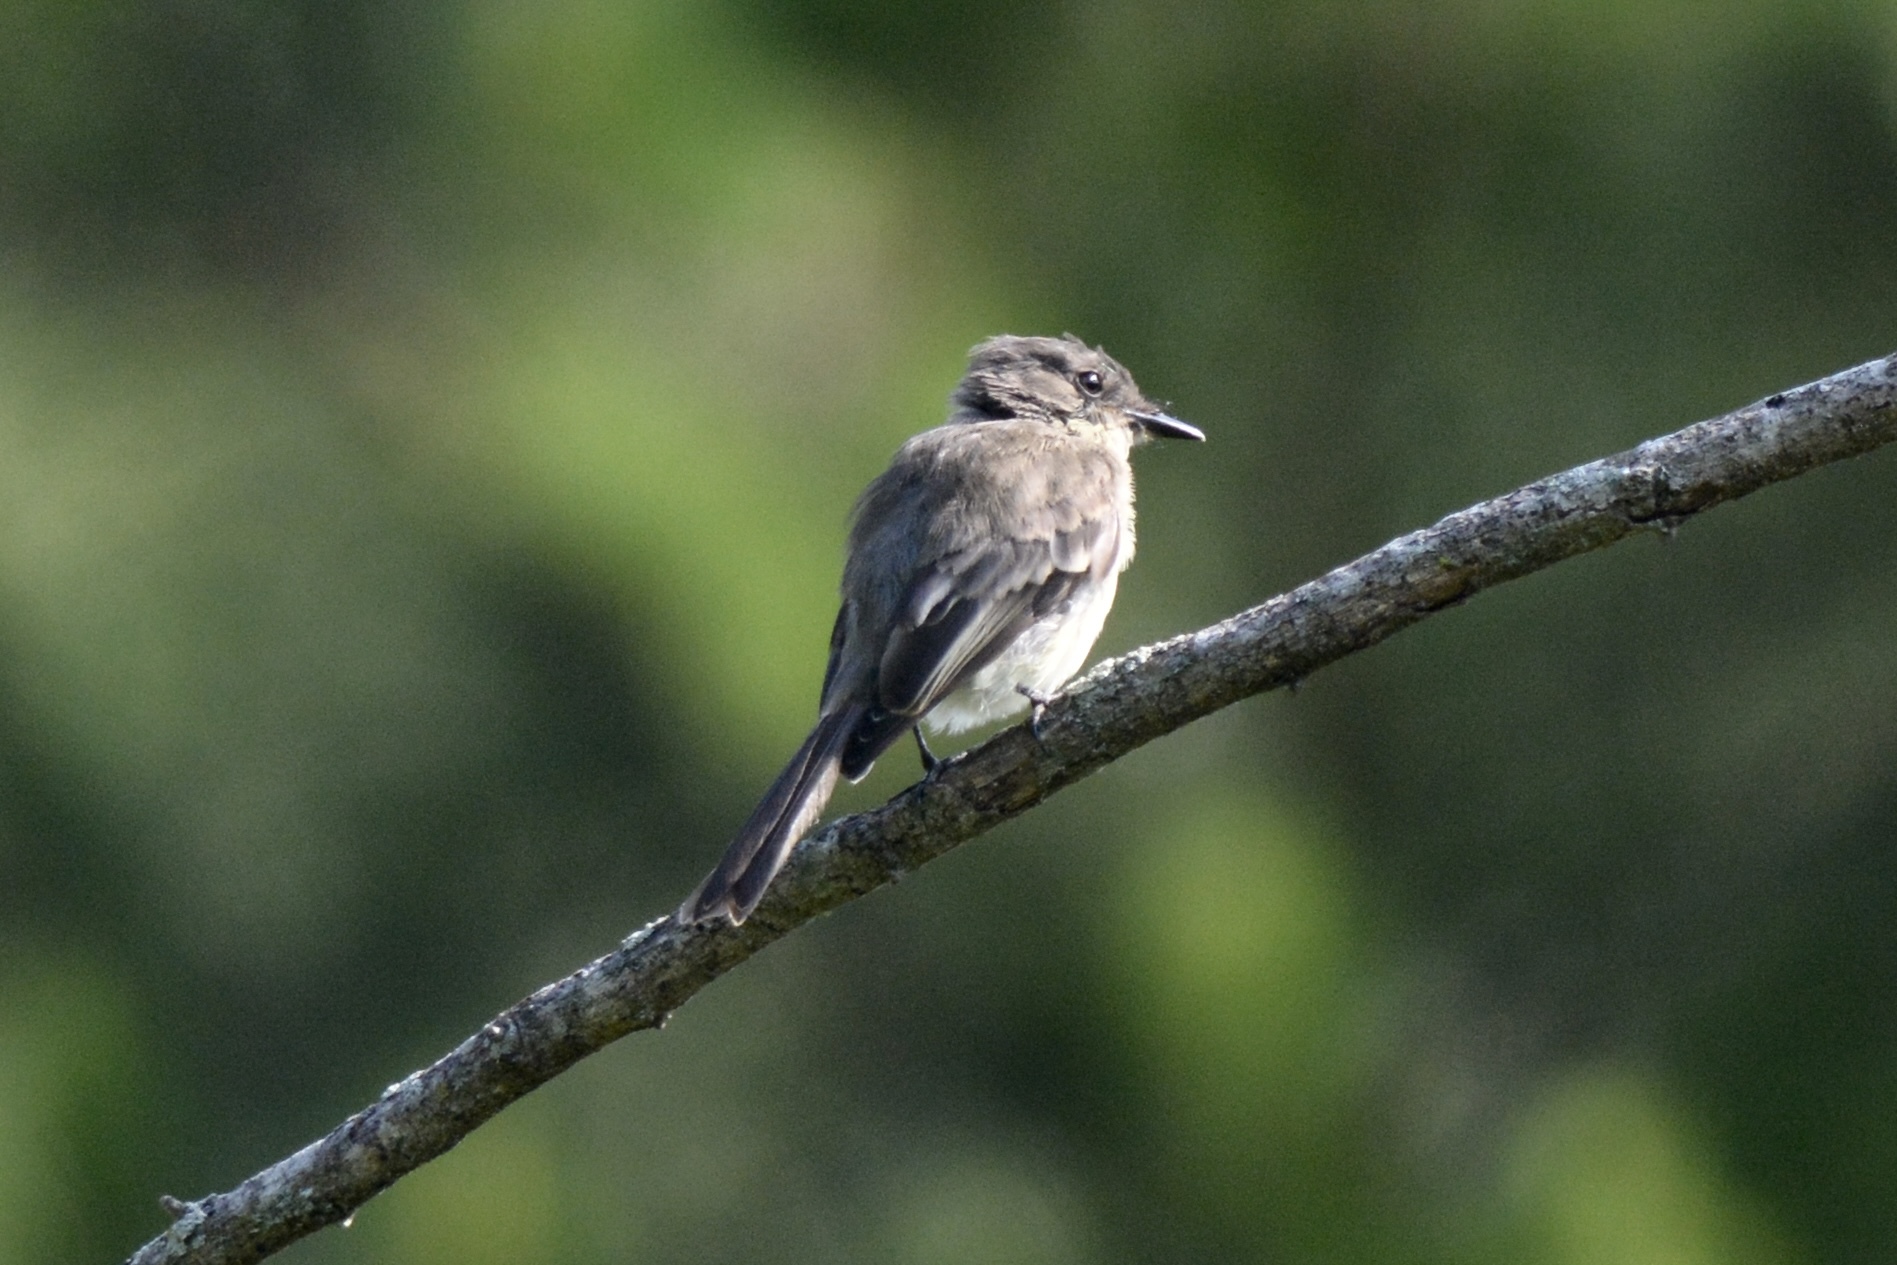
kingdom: Animalia
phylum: Chordata
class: Aves
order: Passeriformes
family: Tyrannidae
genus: Sayornis
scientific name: Sayornis phoebe
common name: Eastern phoebe
